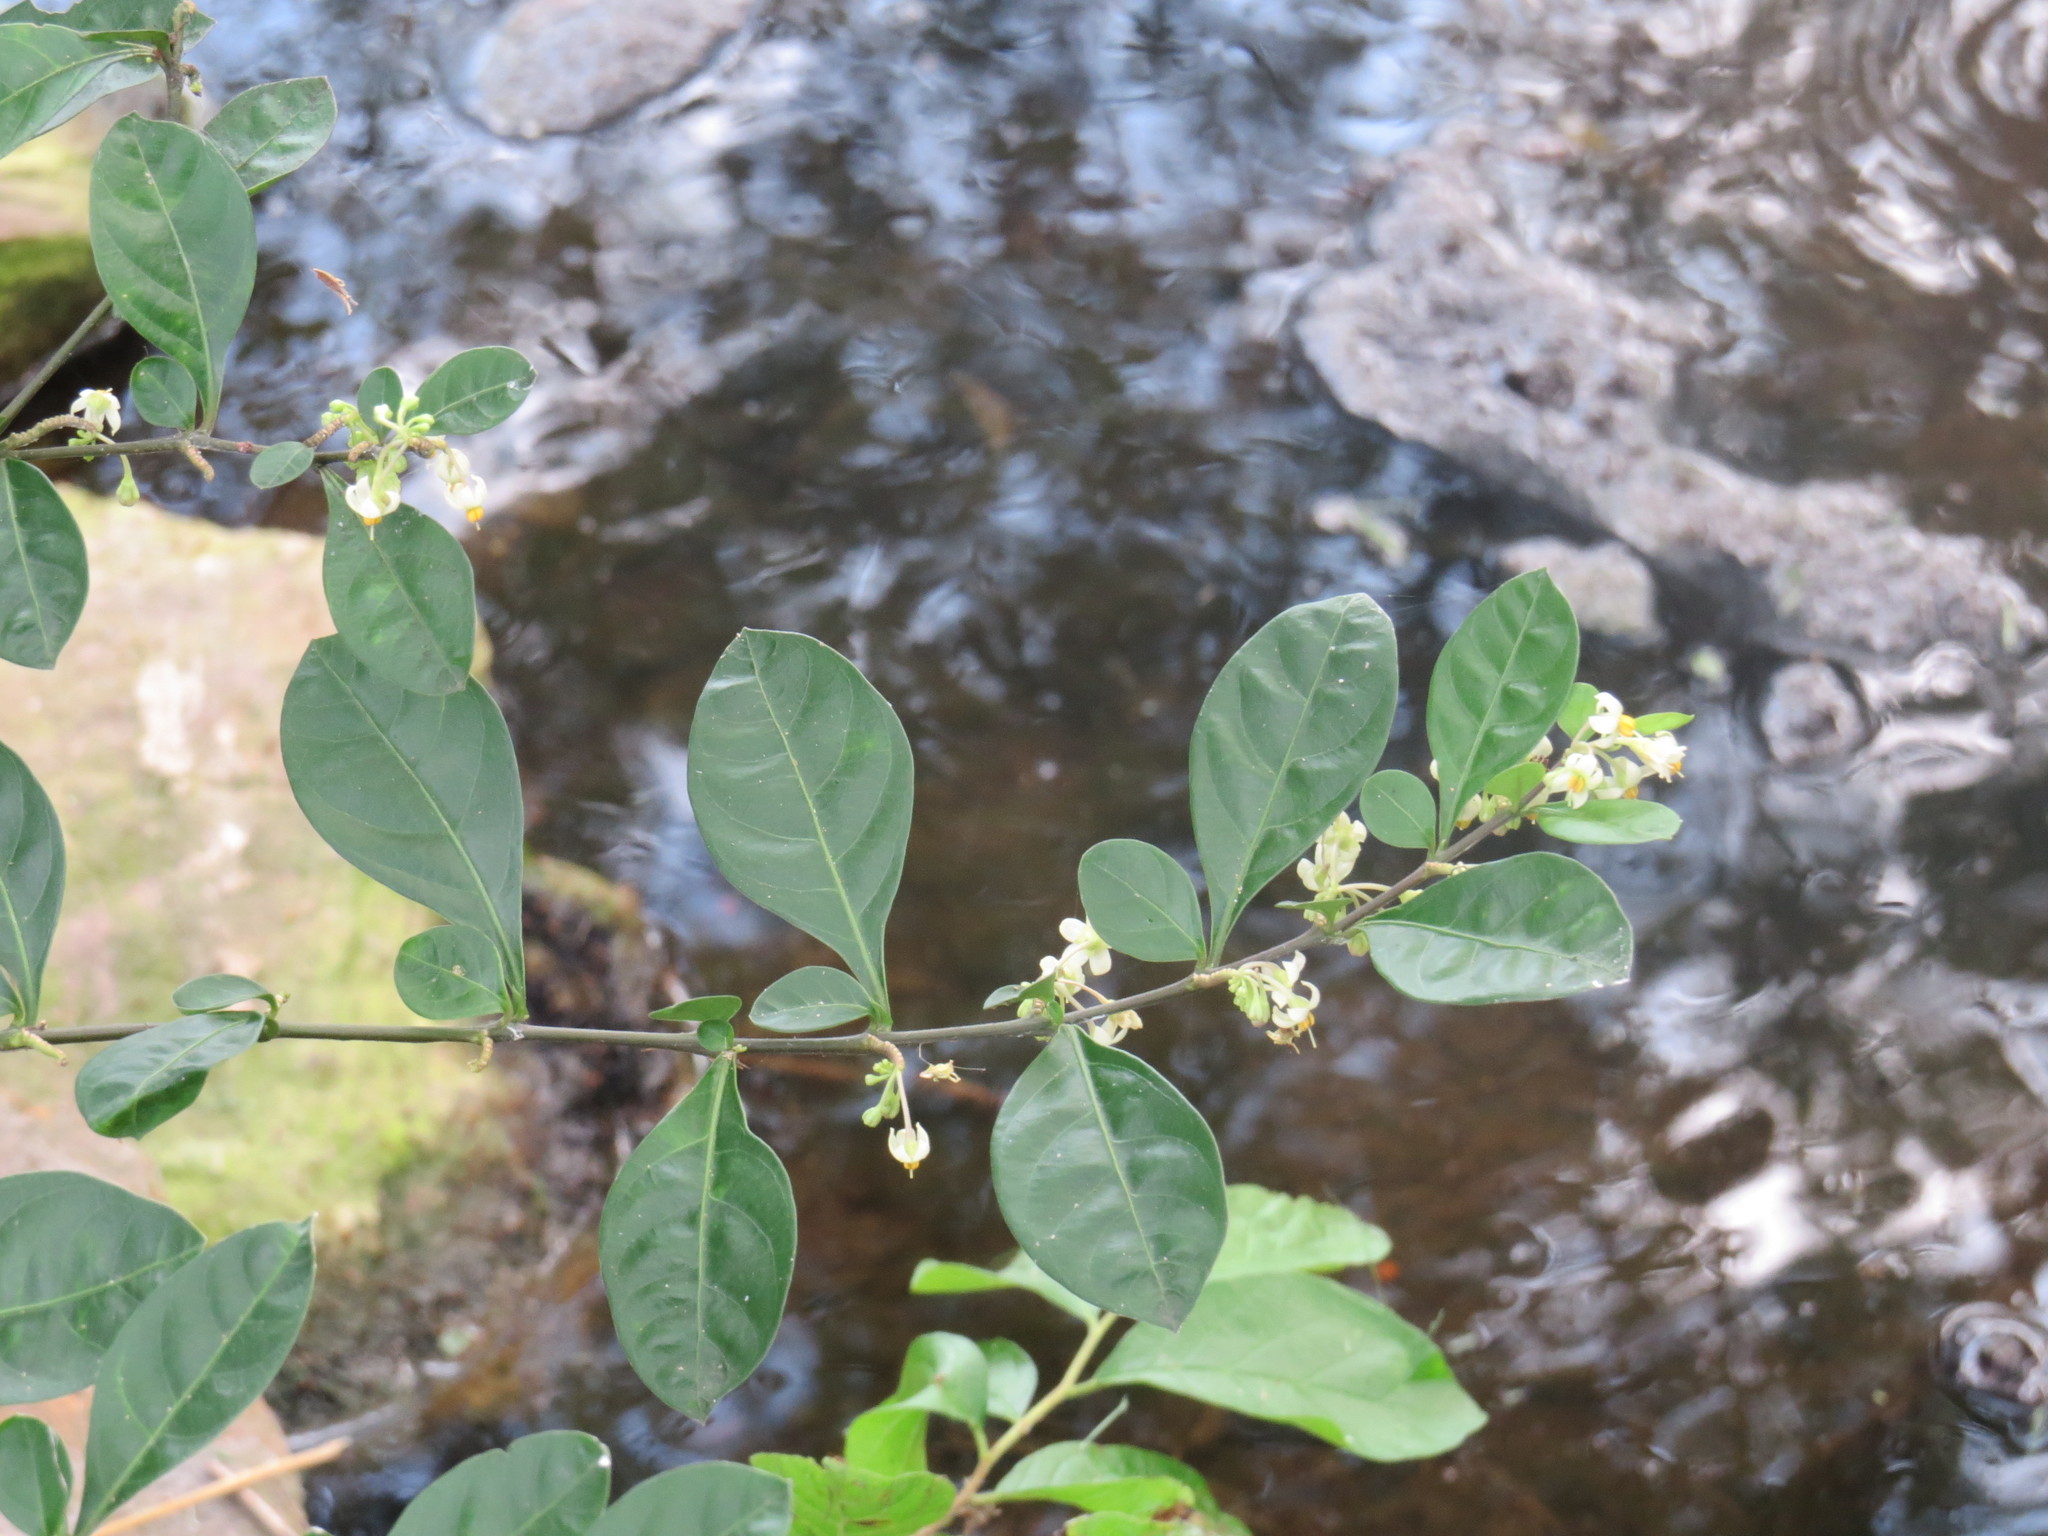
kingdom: Plantae
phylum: Tracheophyta
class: Magnoliopsida
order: Solanales
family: Solanaceae
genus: Solanum
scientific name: Solanum diphyllum
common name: Twoleaf nightshade
